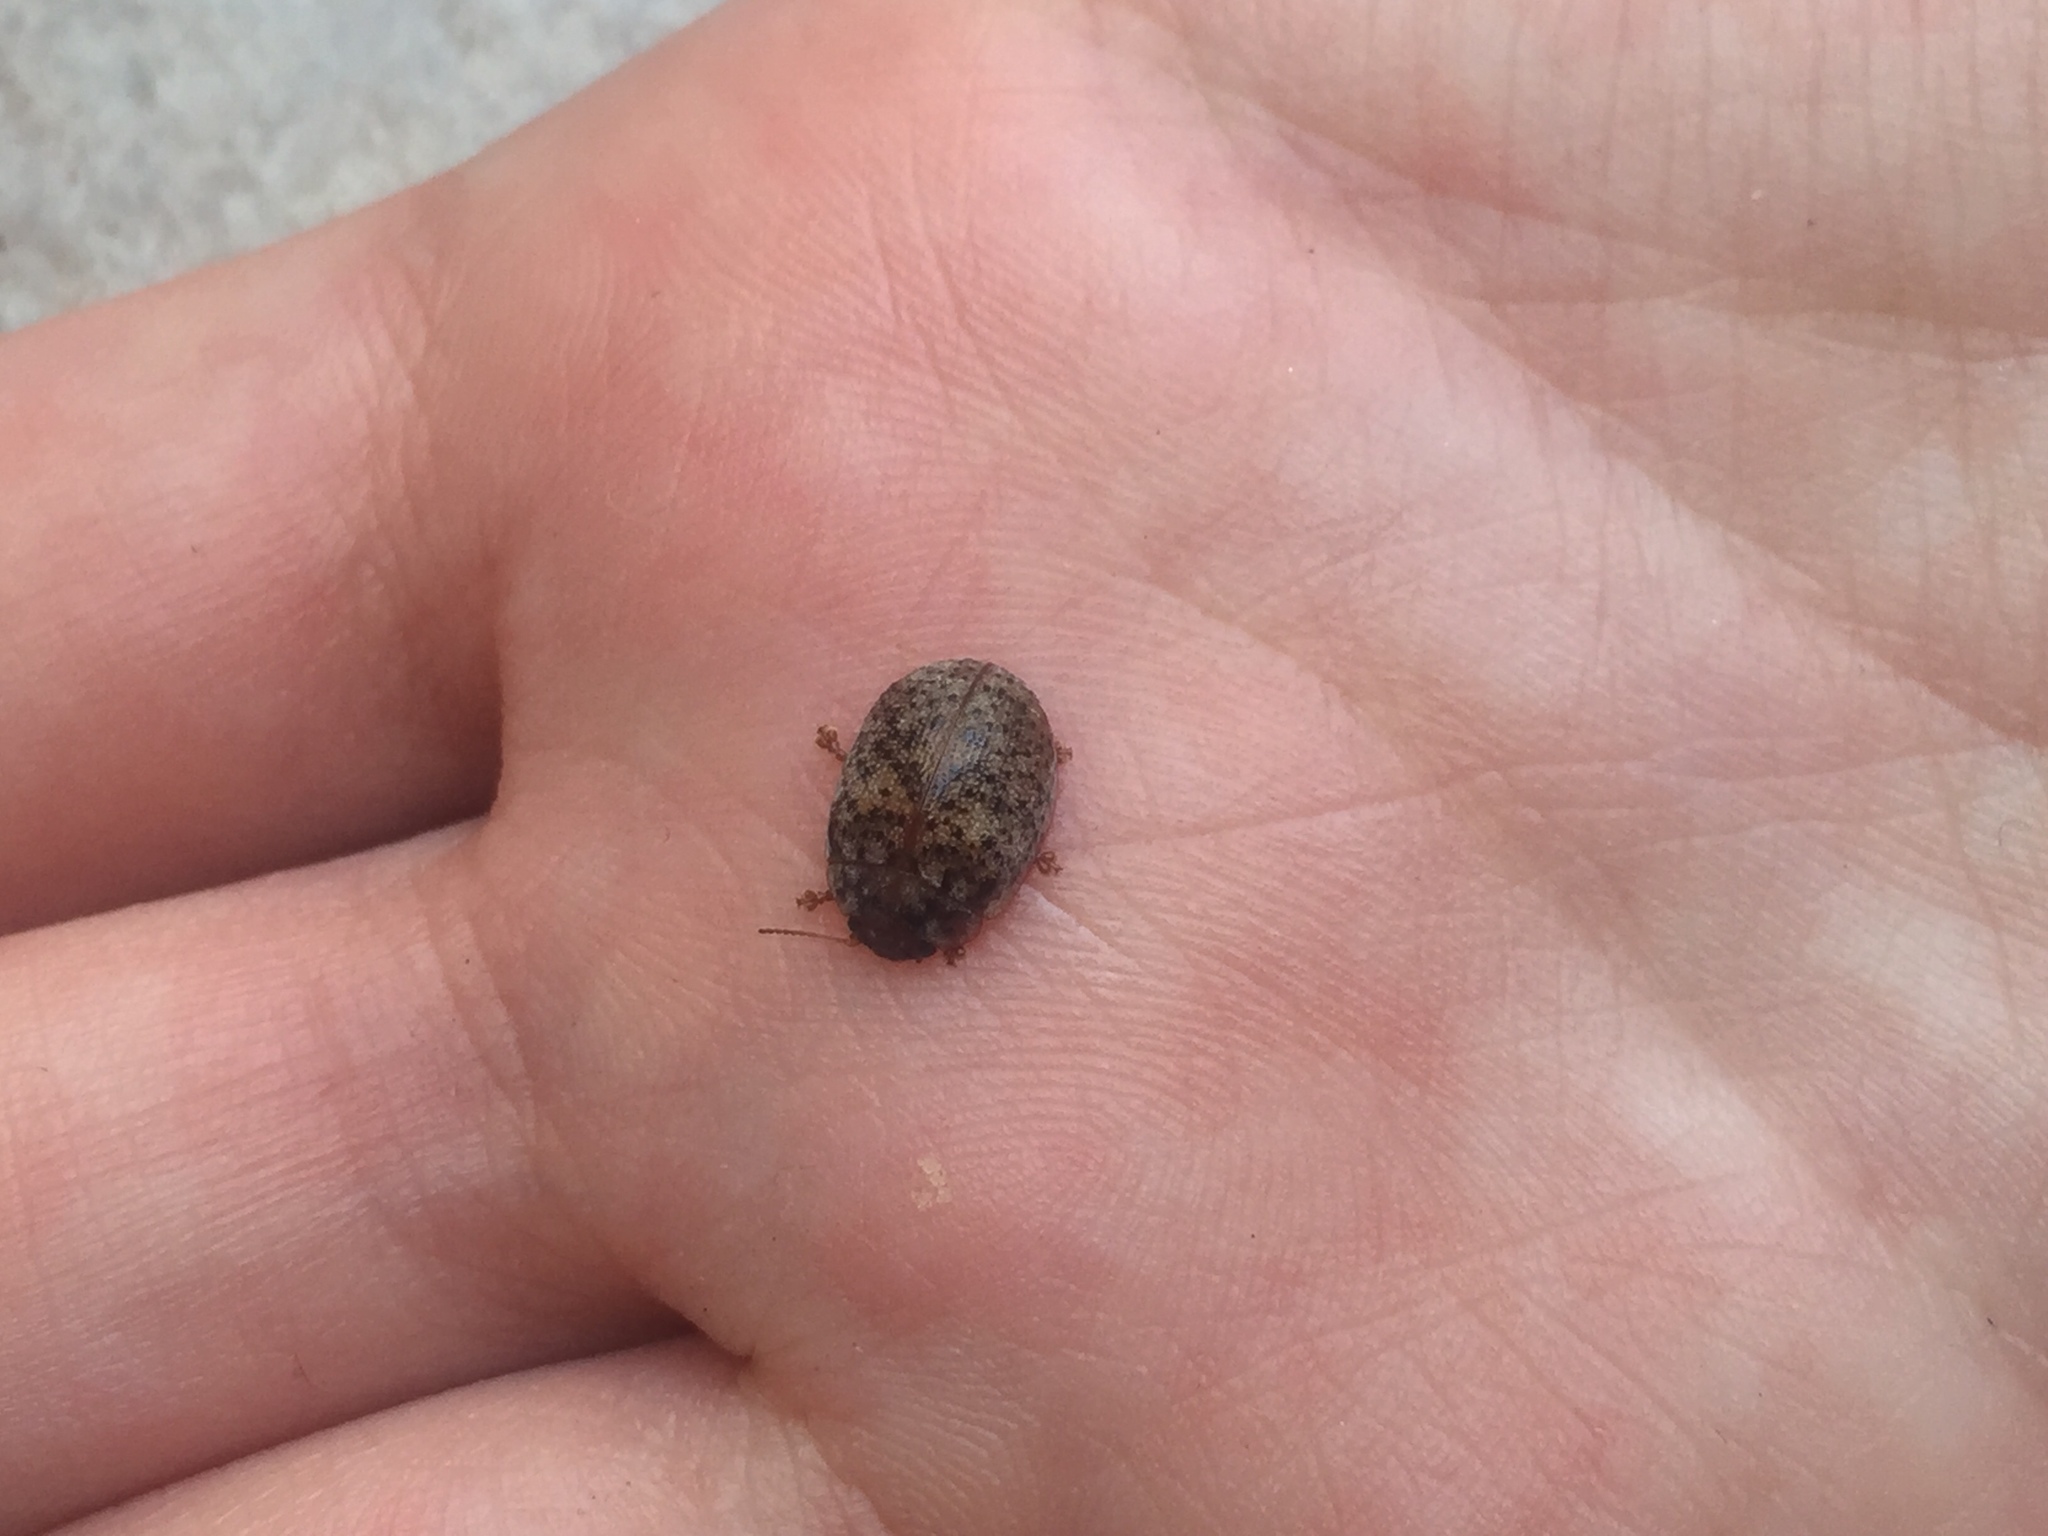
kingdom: Animalia
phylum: Arthropoda
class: Insecta
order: Coleoptera
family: Chrysomelidae
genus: Trachymela
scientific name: Trachymela sloanei
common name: Australian tortoise beetle
